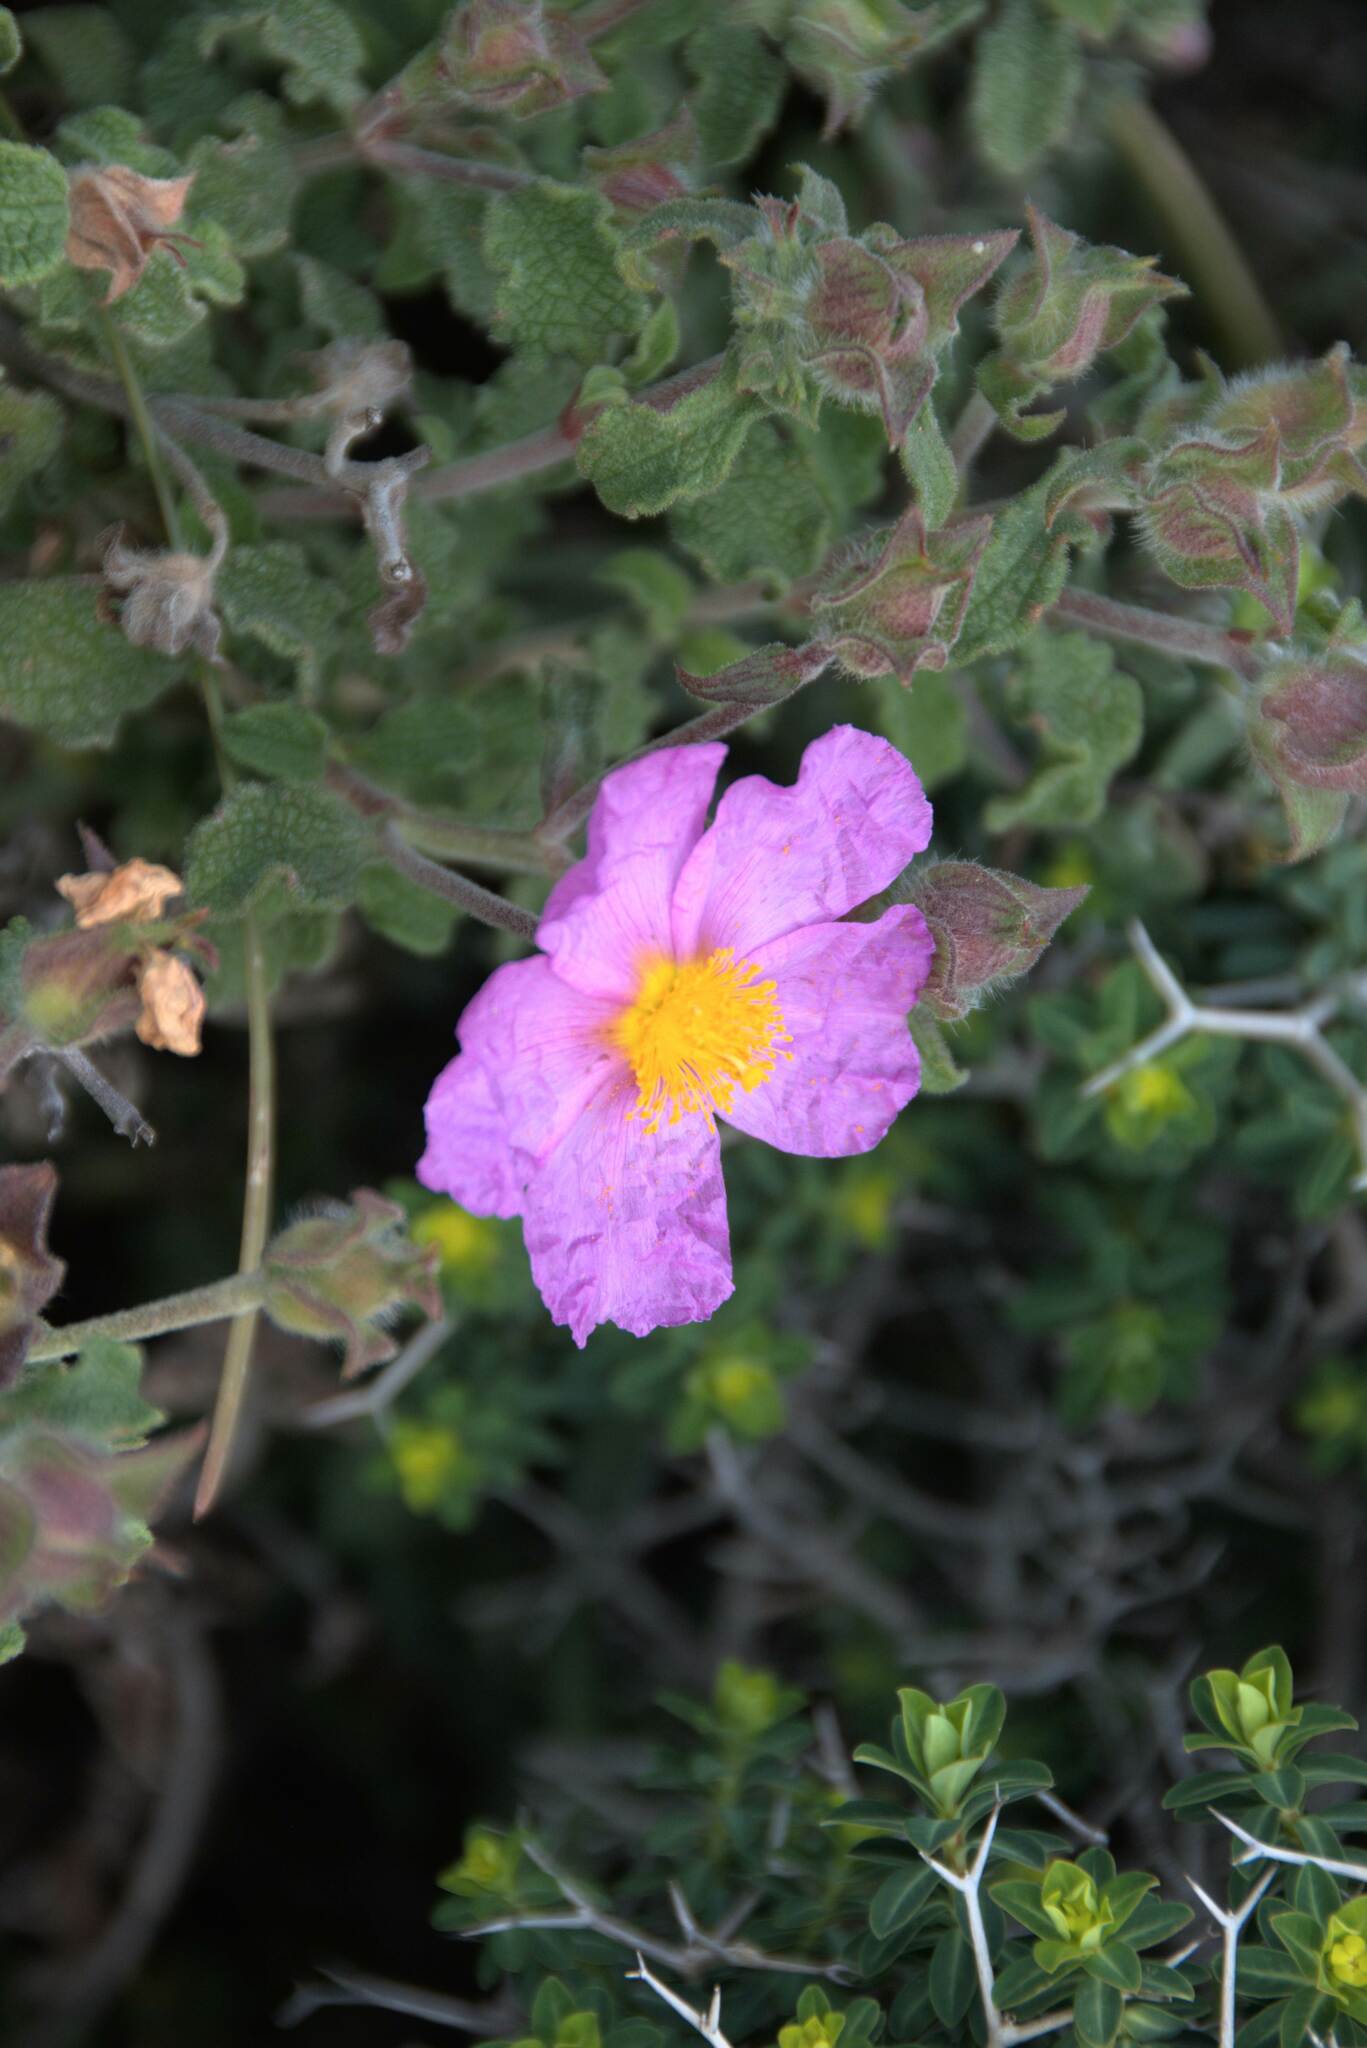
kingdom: Plantae
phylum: Tracheophyta
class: Magnoliopsida
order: Malvales
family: Cistaceae
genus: Cistus
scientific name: Cistus creticus
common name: Cretan rockrose
